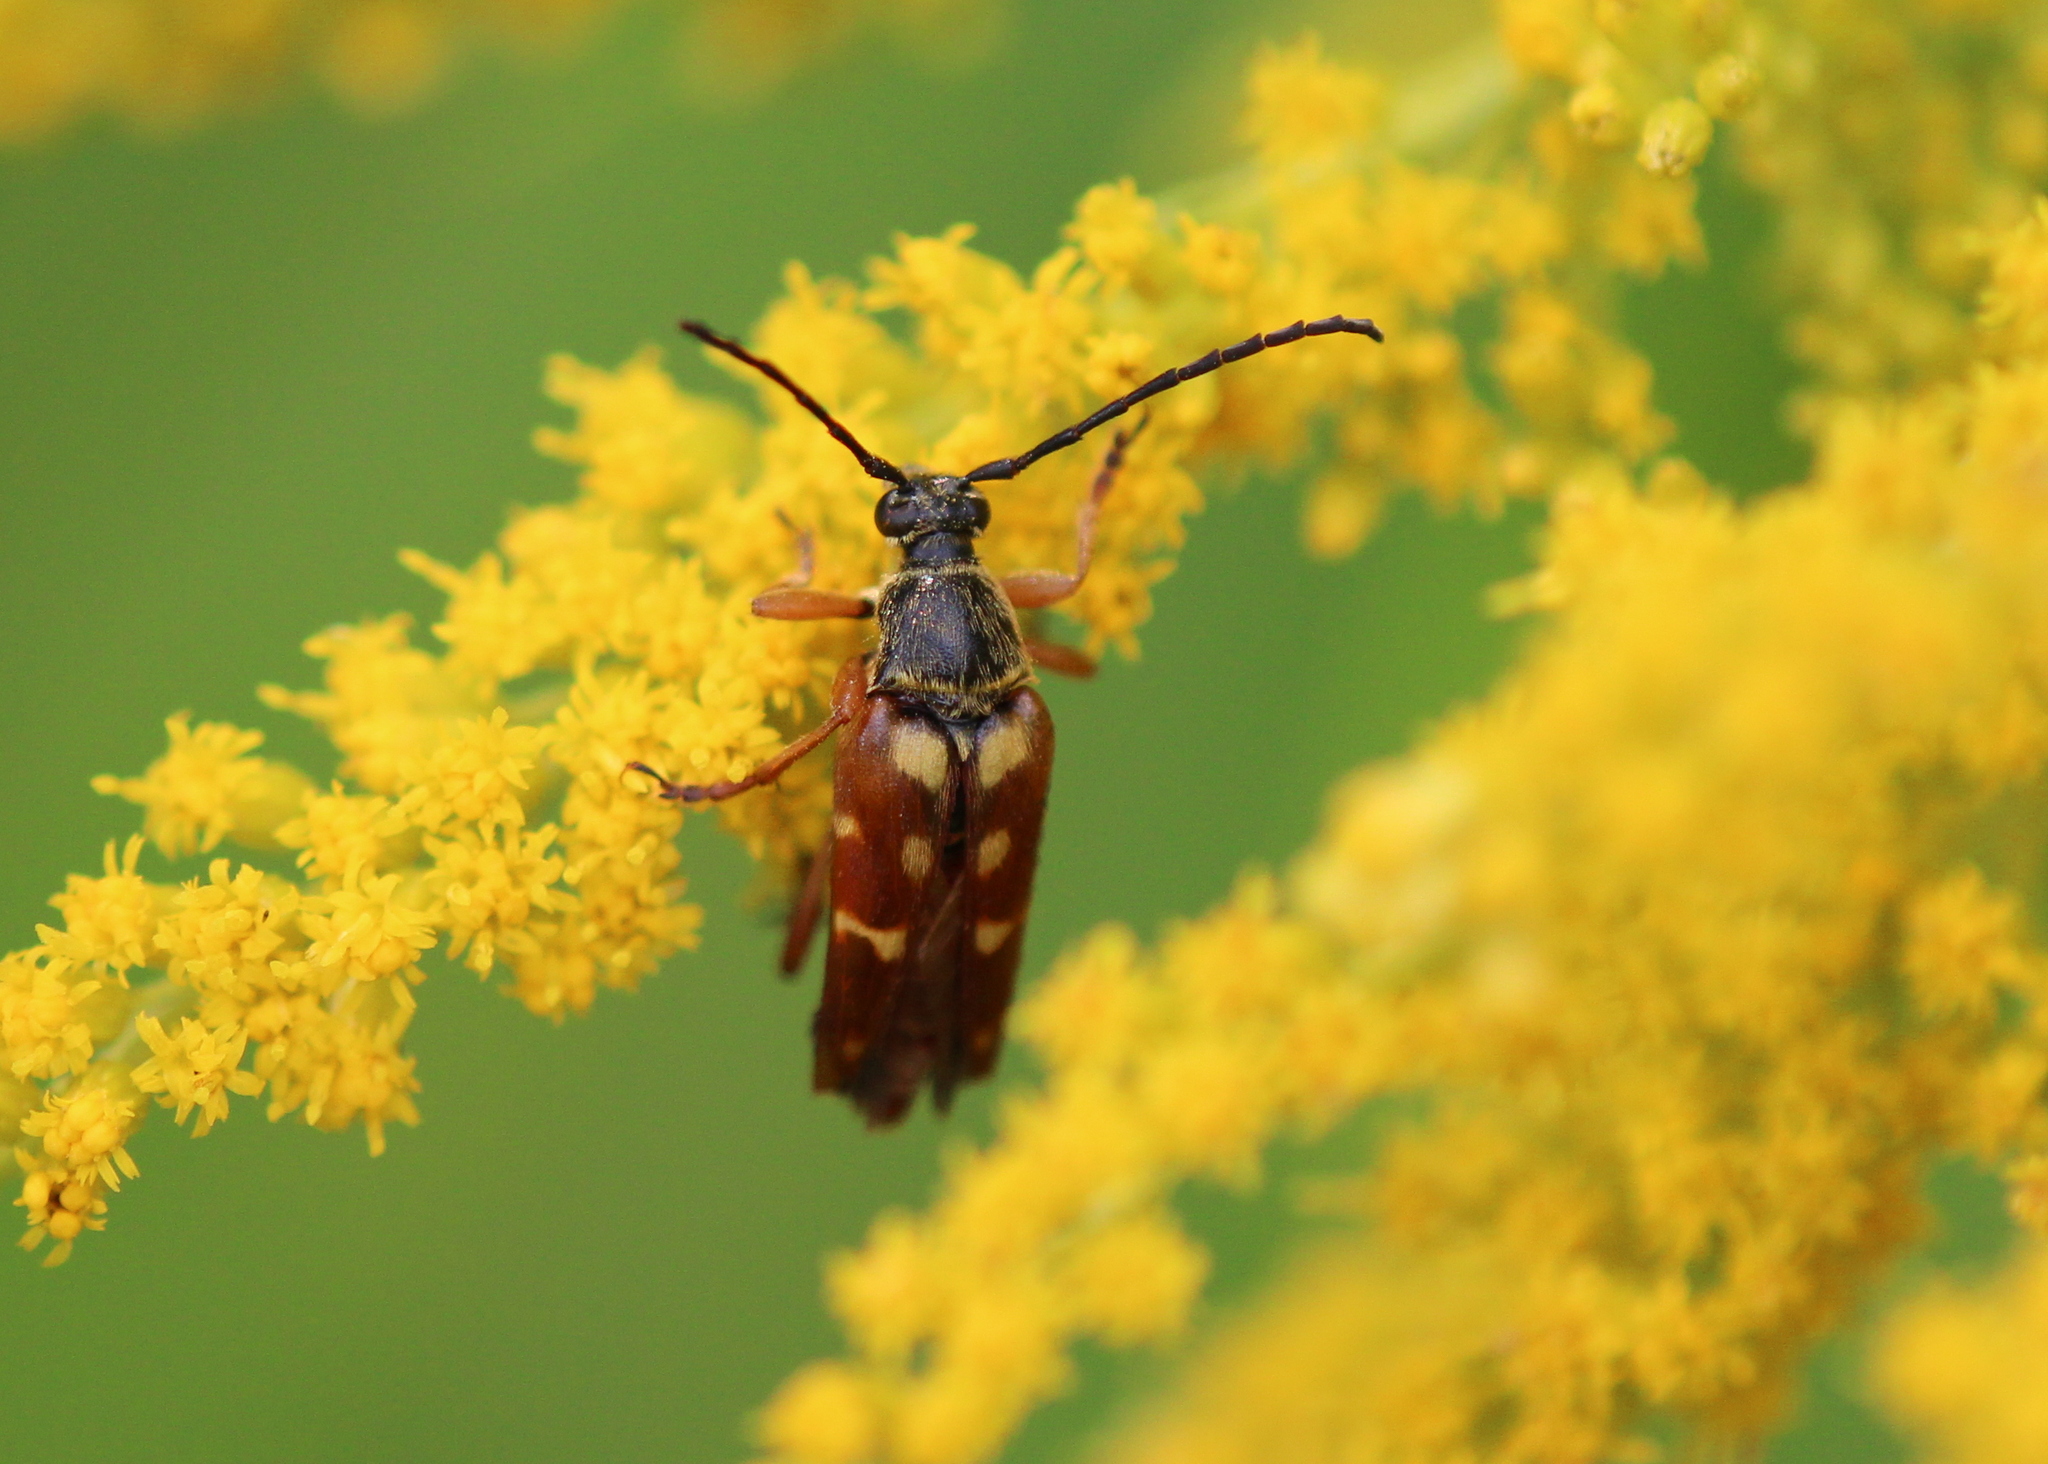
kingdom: Animalia
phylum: Arthropoda
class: Insecta
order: Coleoptera
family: Cerambycidae
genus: Typocerus
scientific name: Typocerus velutinus
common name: Banded longhorn beetle
